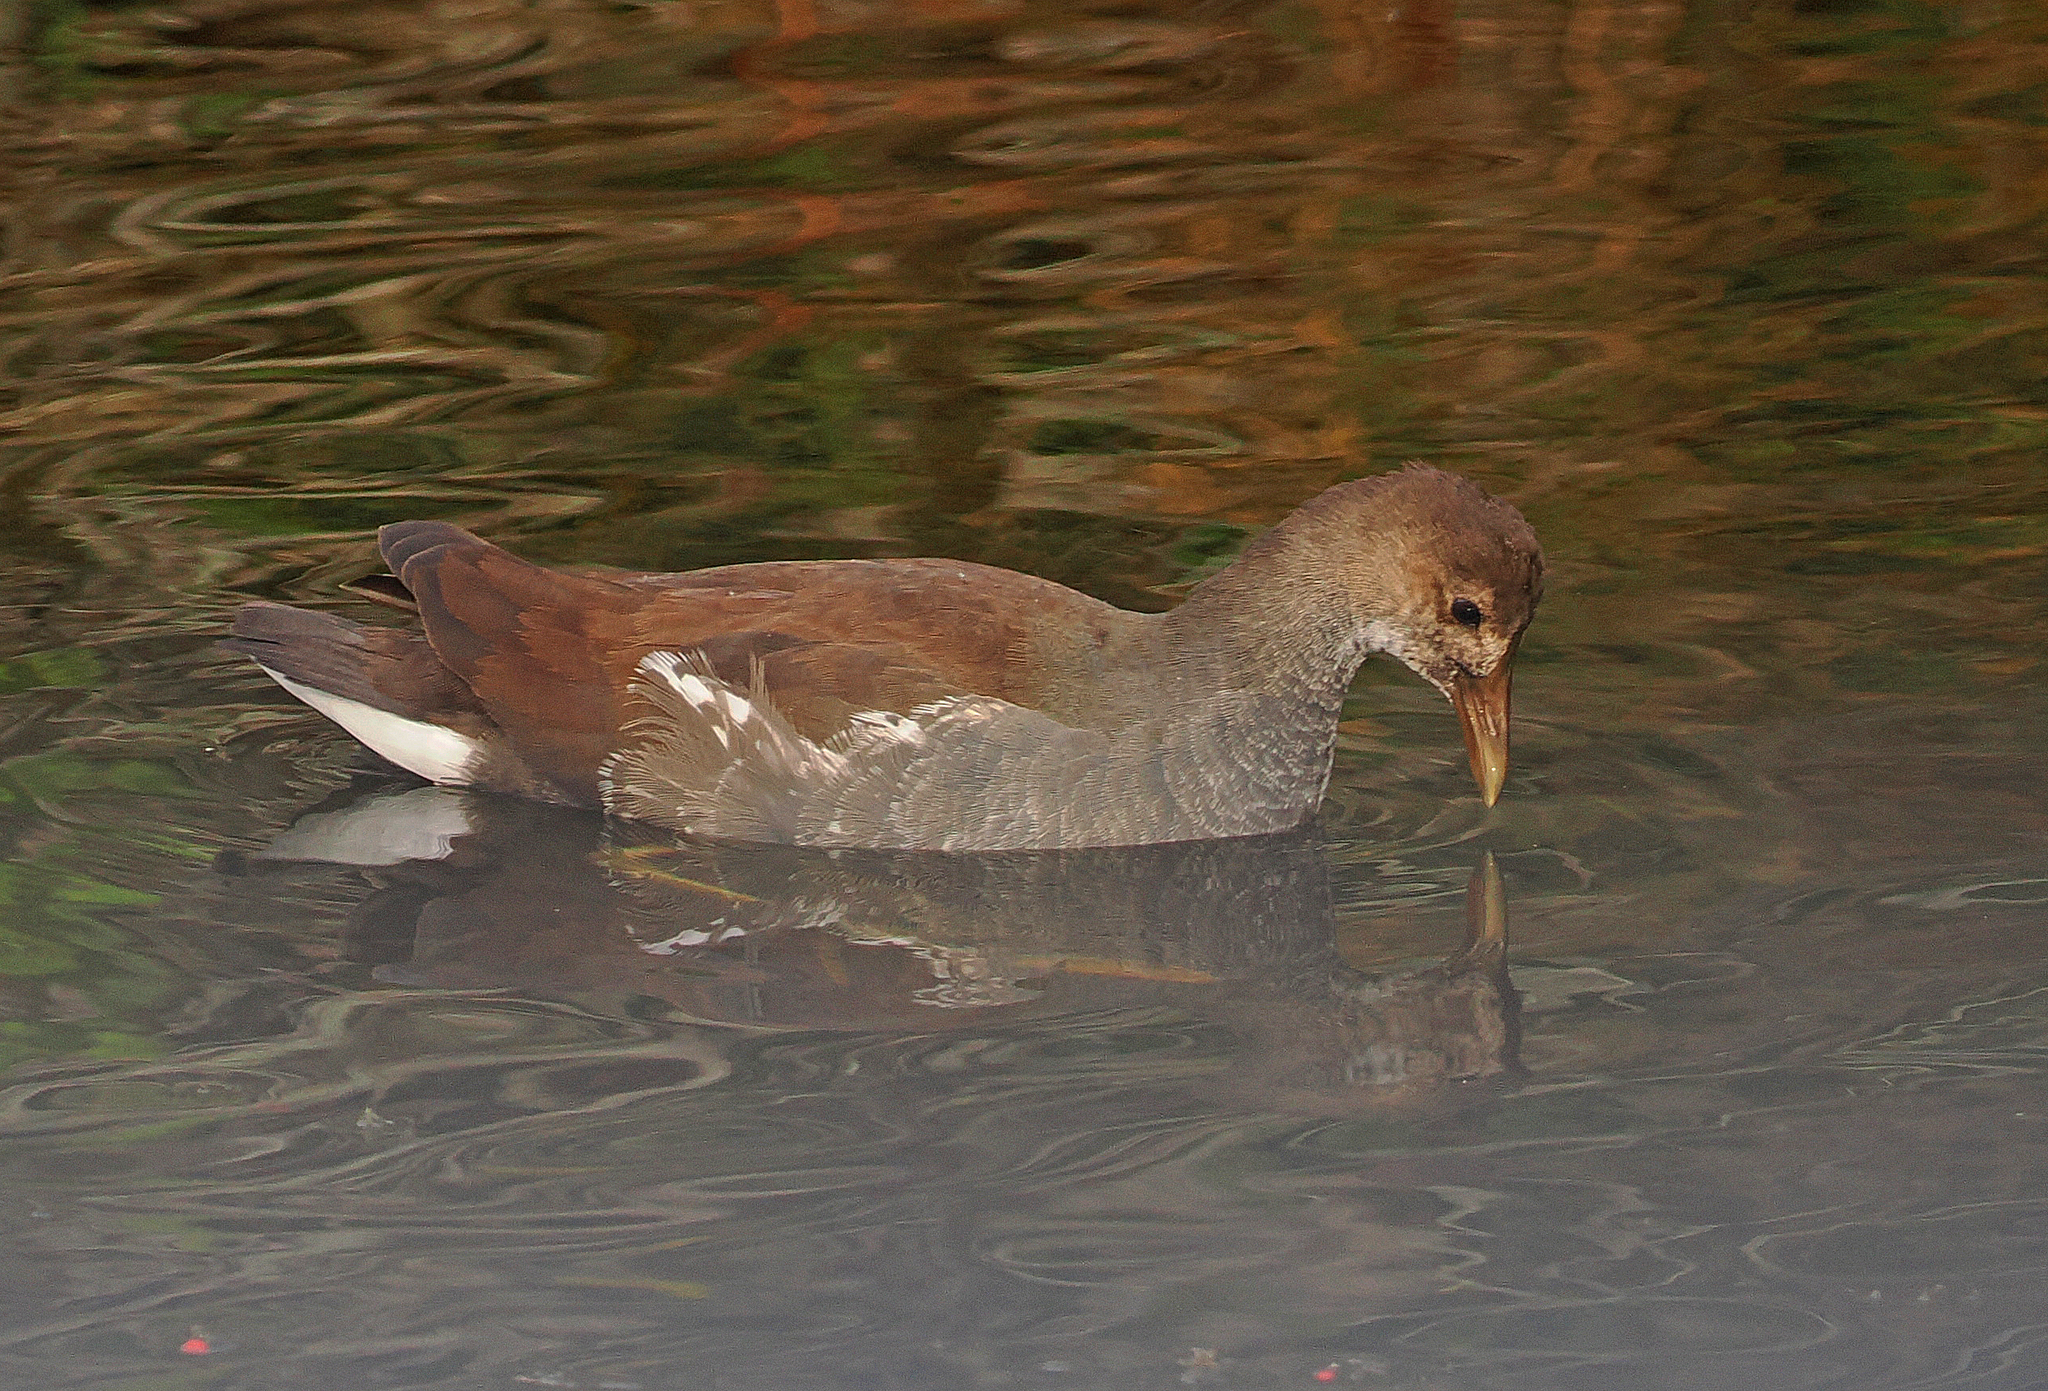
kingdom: Animalia
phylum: Chordata
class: Aves
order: Gruiformes
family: Rallidae
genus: Gallinula
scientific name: Gallinula chloropus
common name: Common moorhen
